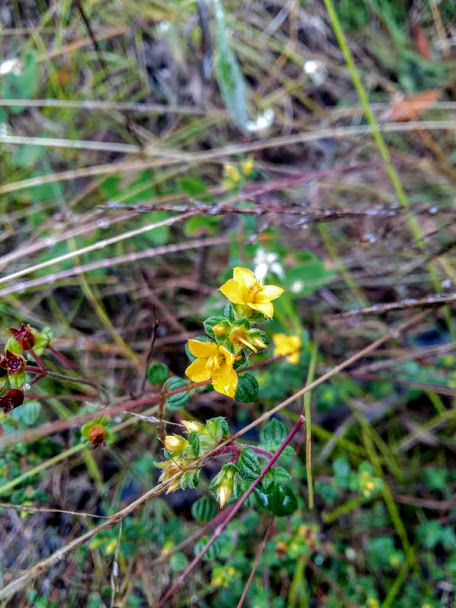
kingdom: Plantae
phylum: Tracheophyta
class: Magnoliopsida
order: Myrtales
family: Melastomataceae
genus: Chaetolepis
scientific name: Chaetolepis microphylla
